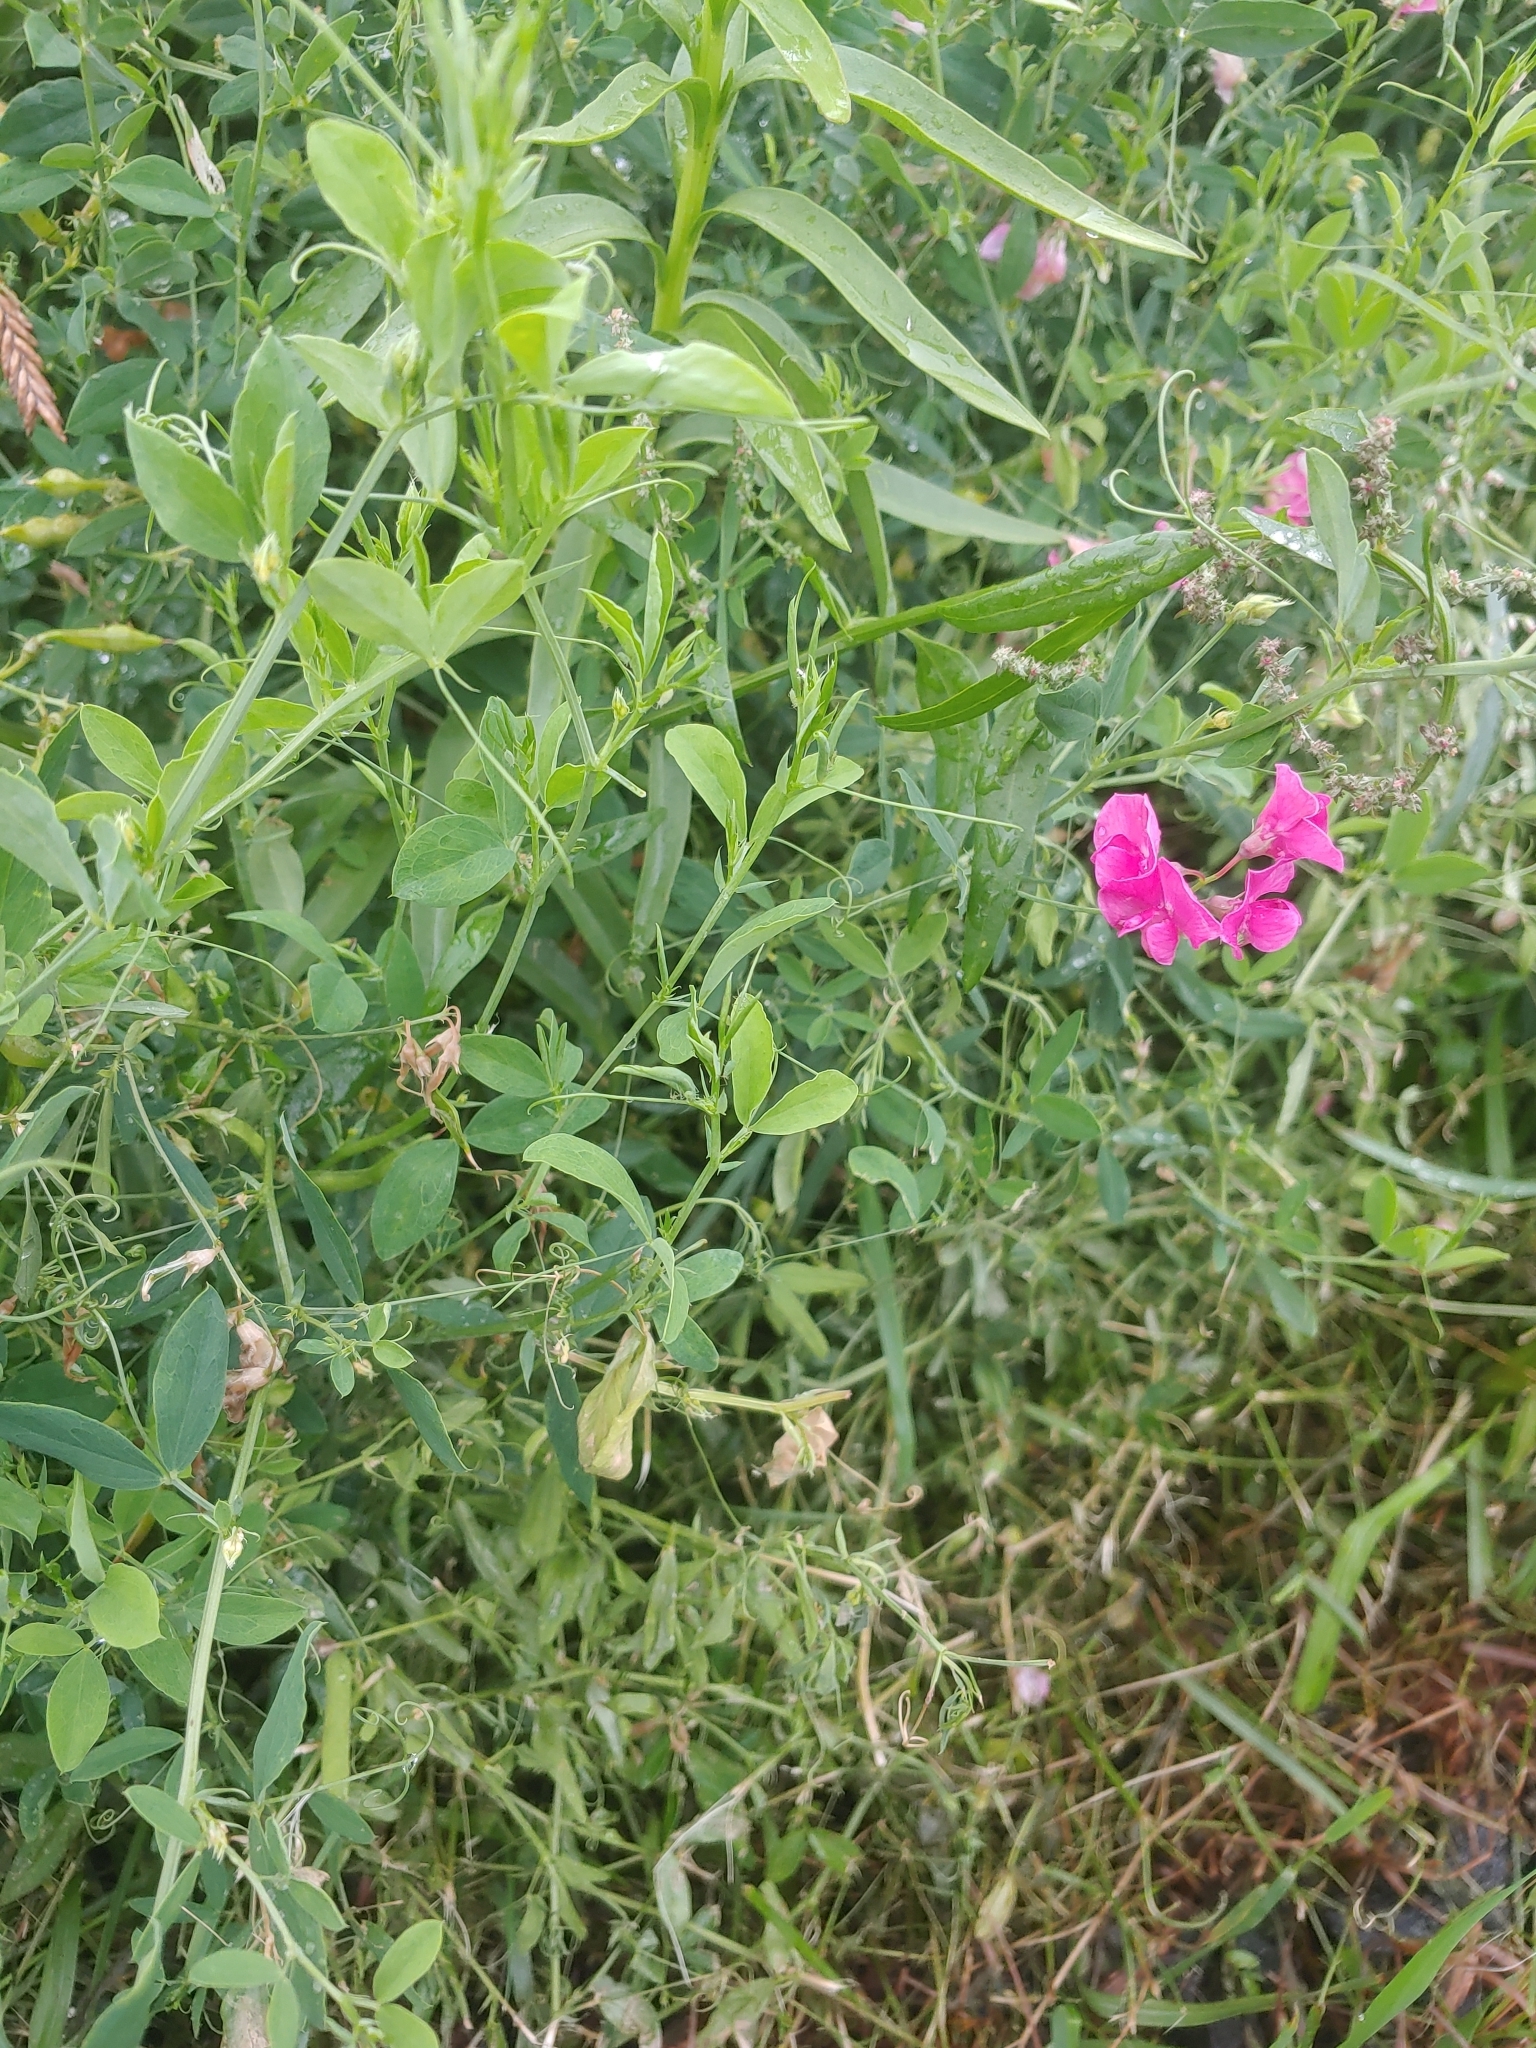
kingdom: Plantae
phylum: Tracheophyta
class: Magnoliopsida
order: Fabales
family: Fabaceae
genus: Lathyrus
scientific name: Lathyrus tuberosus
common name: Tuberous pea
